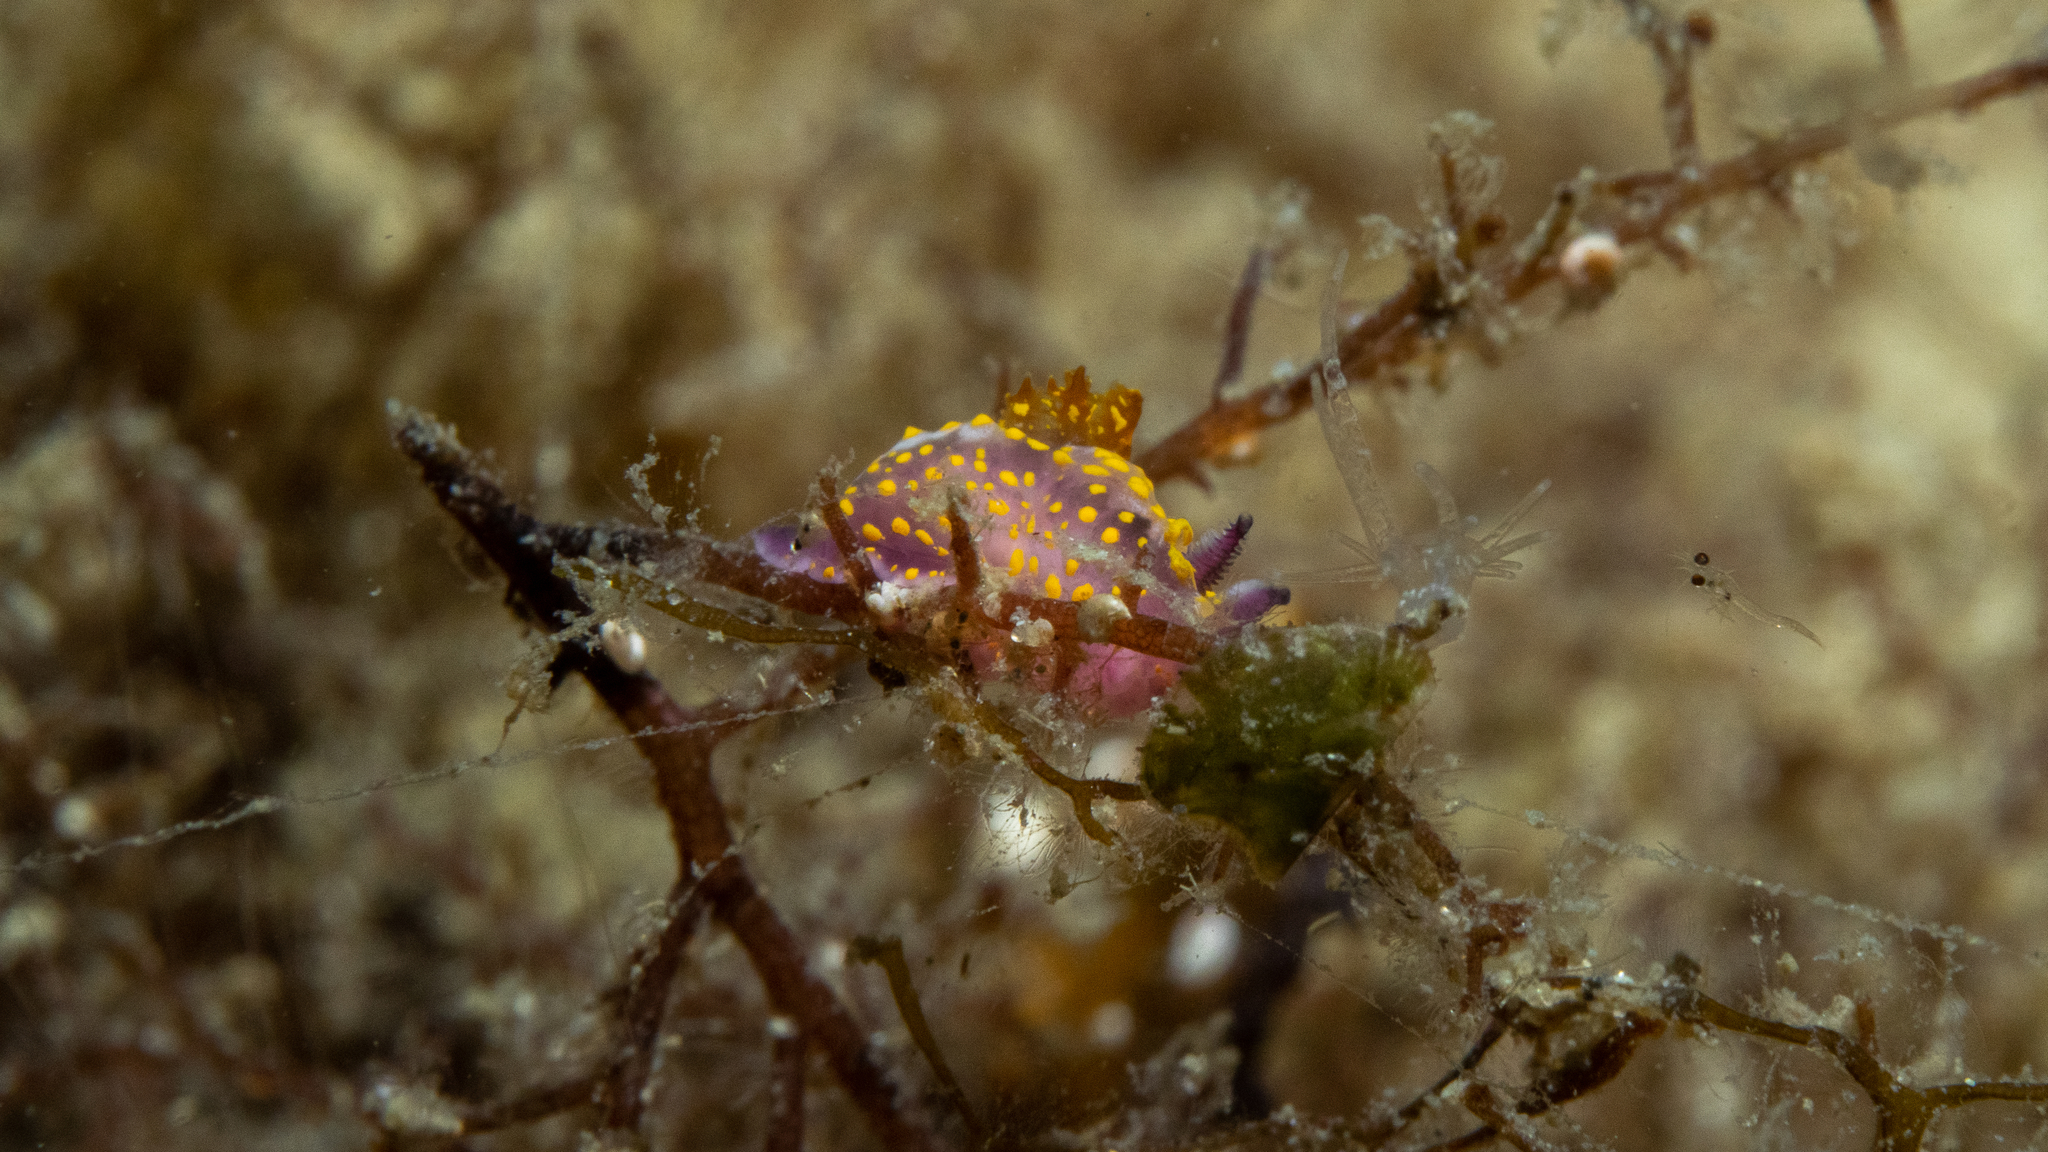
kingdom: Animalia
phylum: Mollusca
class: Gastropoda
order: Nudibranchia
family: Polyceridae
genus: Polycera
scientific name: Polycera janjukia
